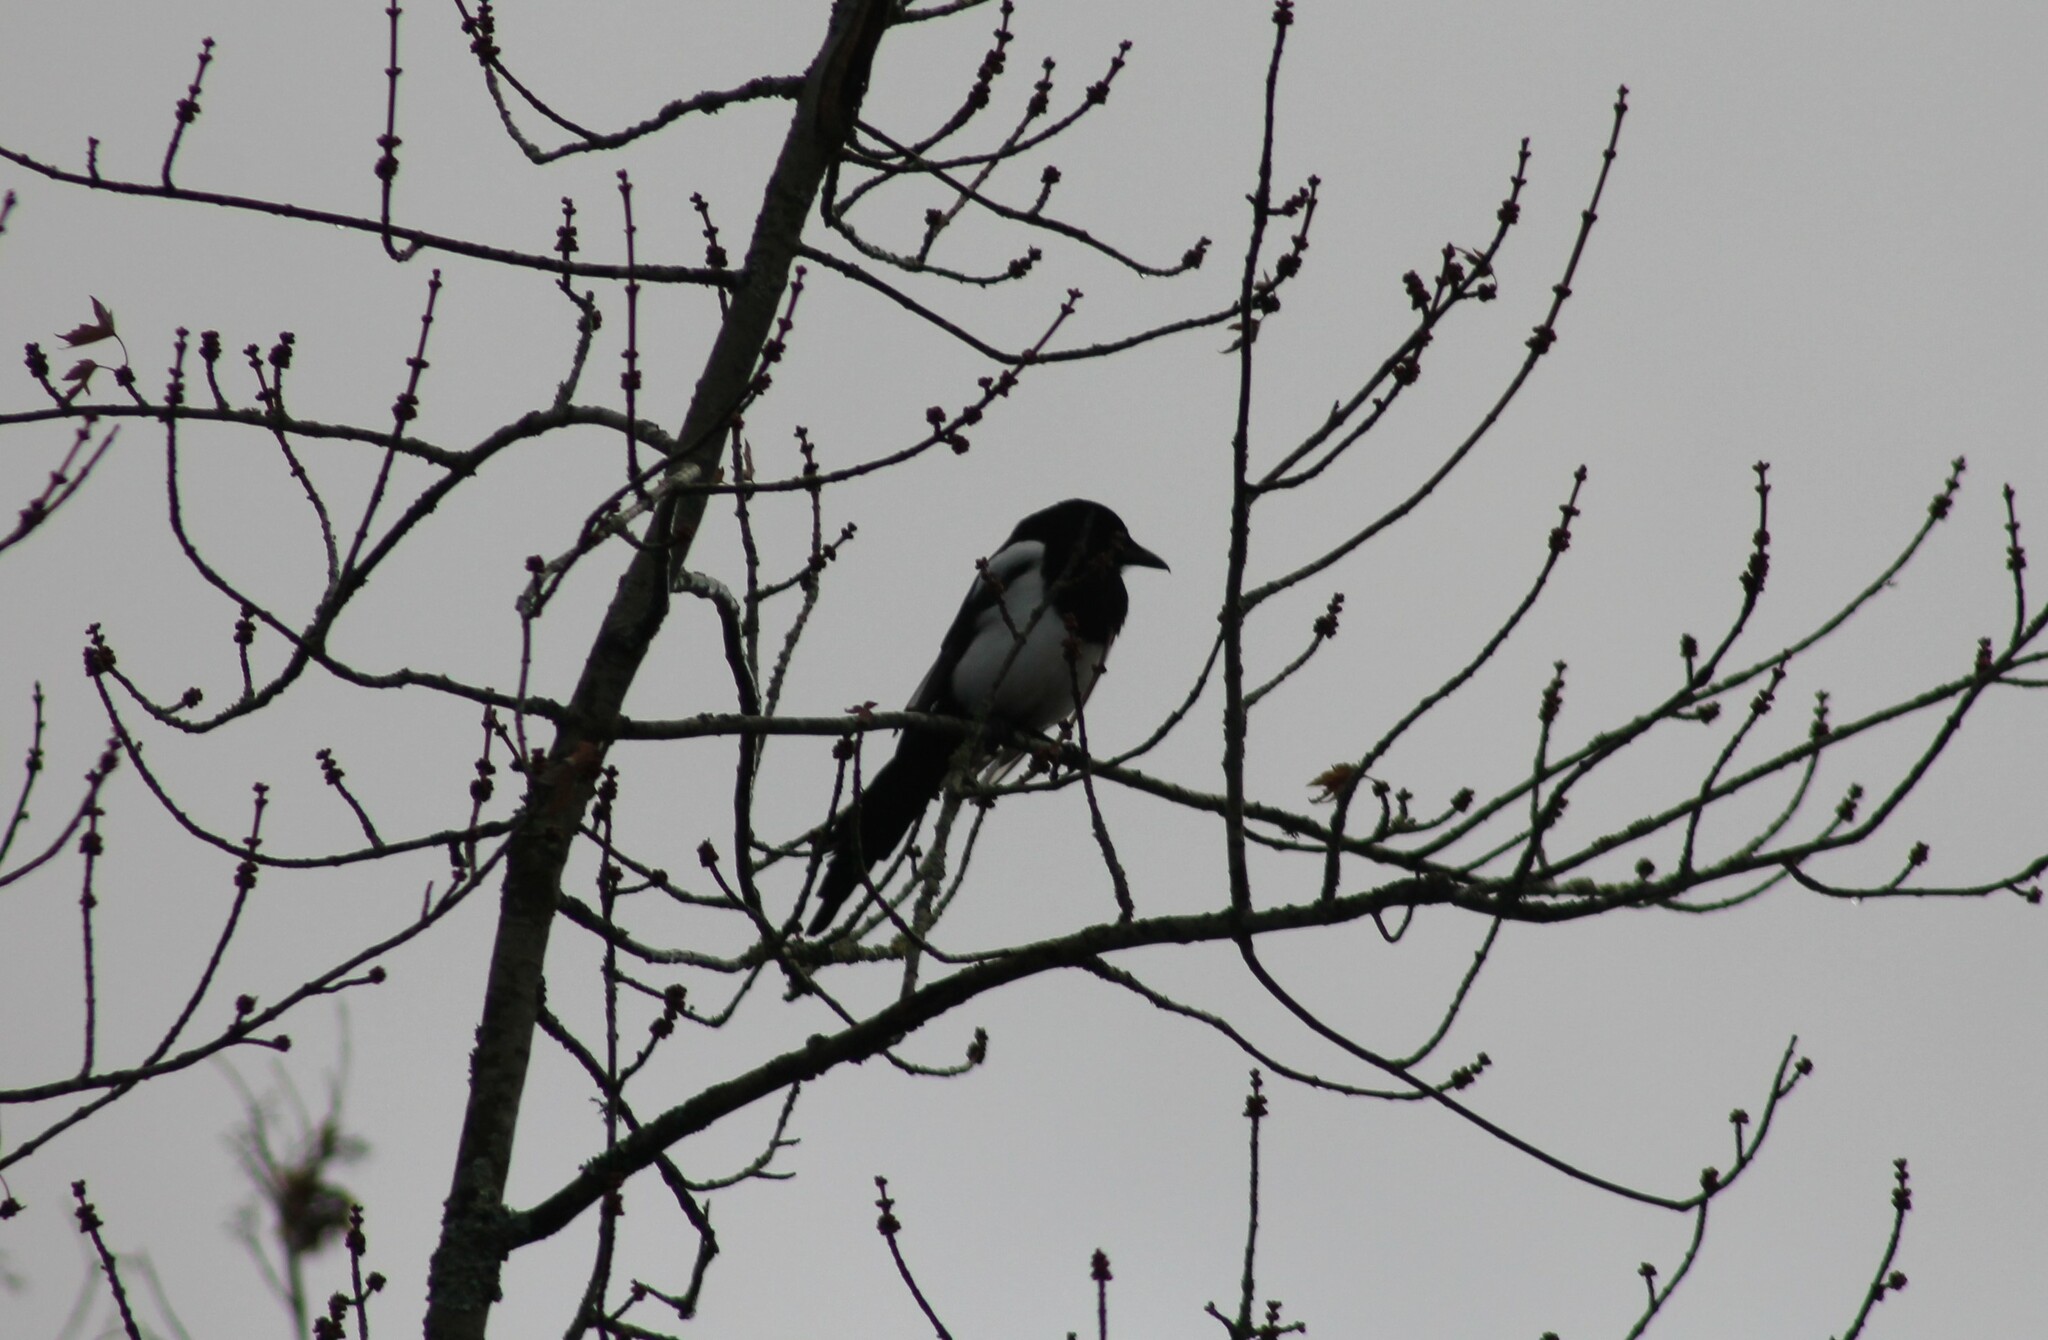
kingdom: Animalia
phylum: Chordata
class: Aves
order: Passeriformes
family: Corvidae
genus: Pica
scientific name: Pica pica
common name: Eurasian magpie
